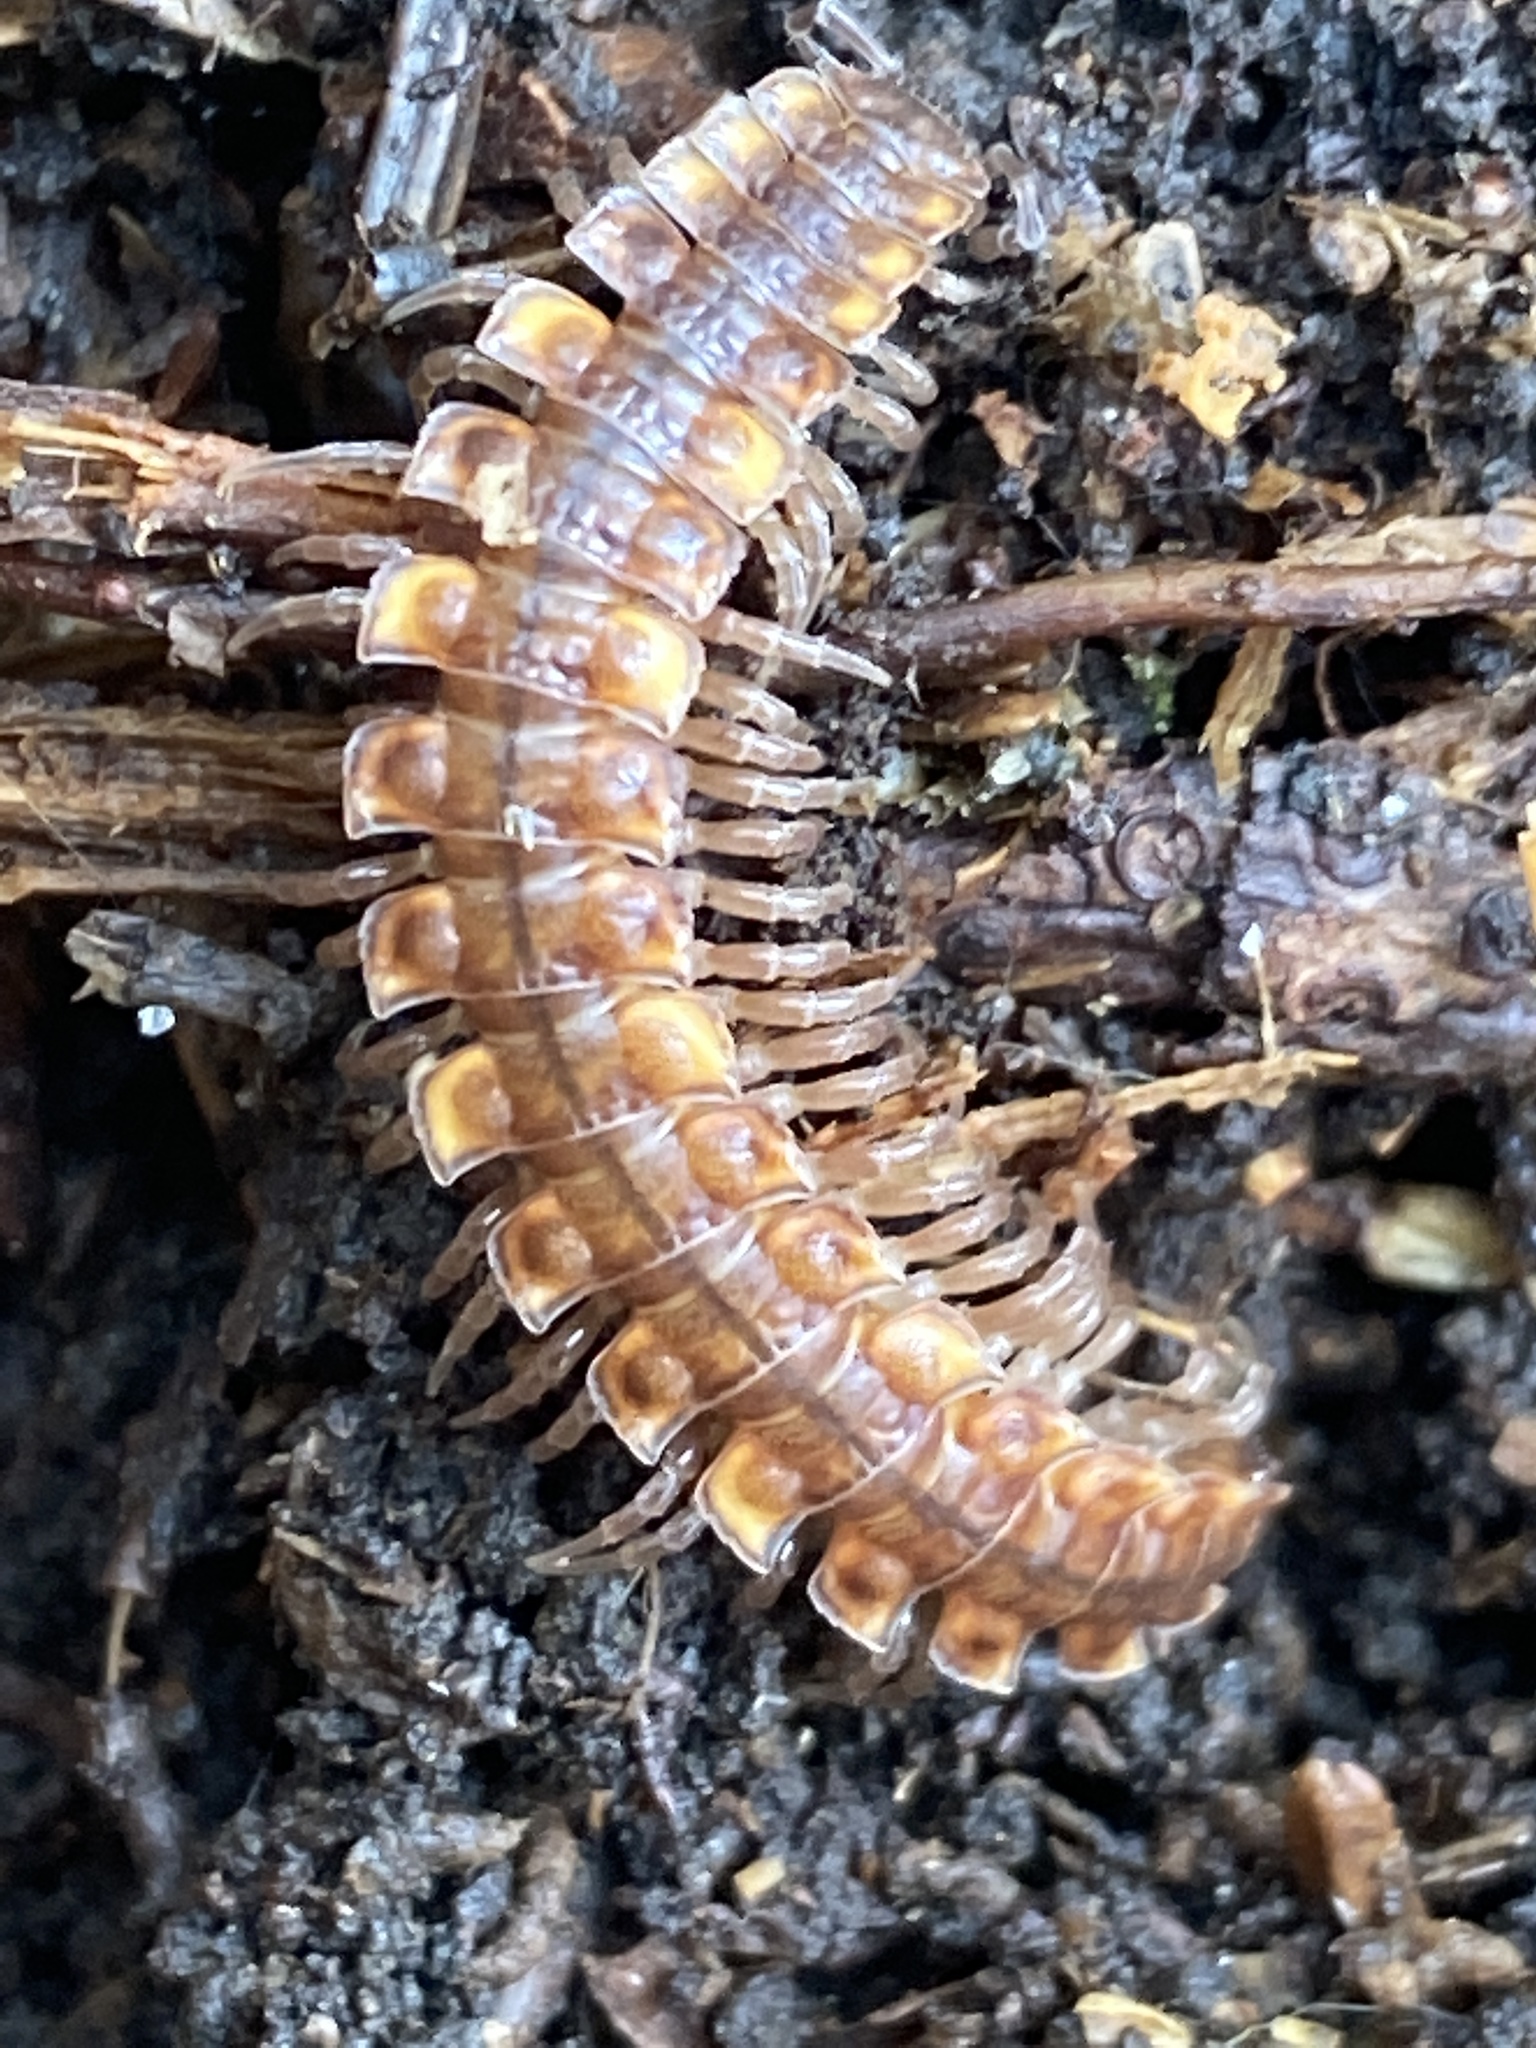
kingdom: Animalia
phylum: Arthropoda
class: Diplopoda
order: Polydesmida
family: Polydesmidae
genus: Polydesmus
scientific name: Polydesmus complanatus
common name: Flat-backed millipede
